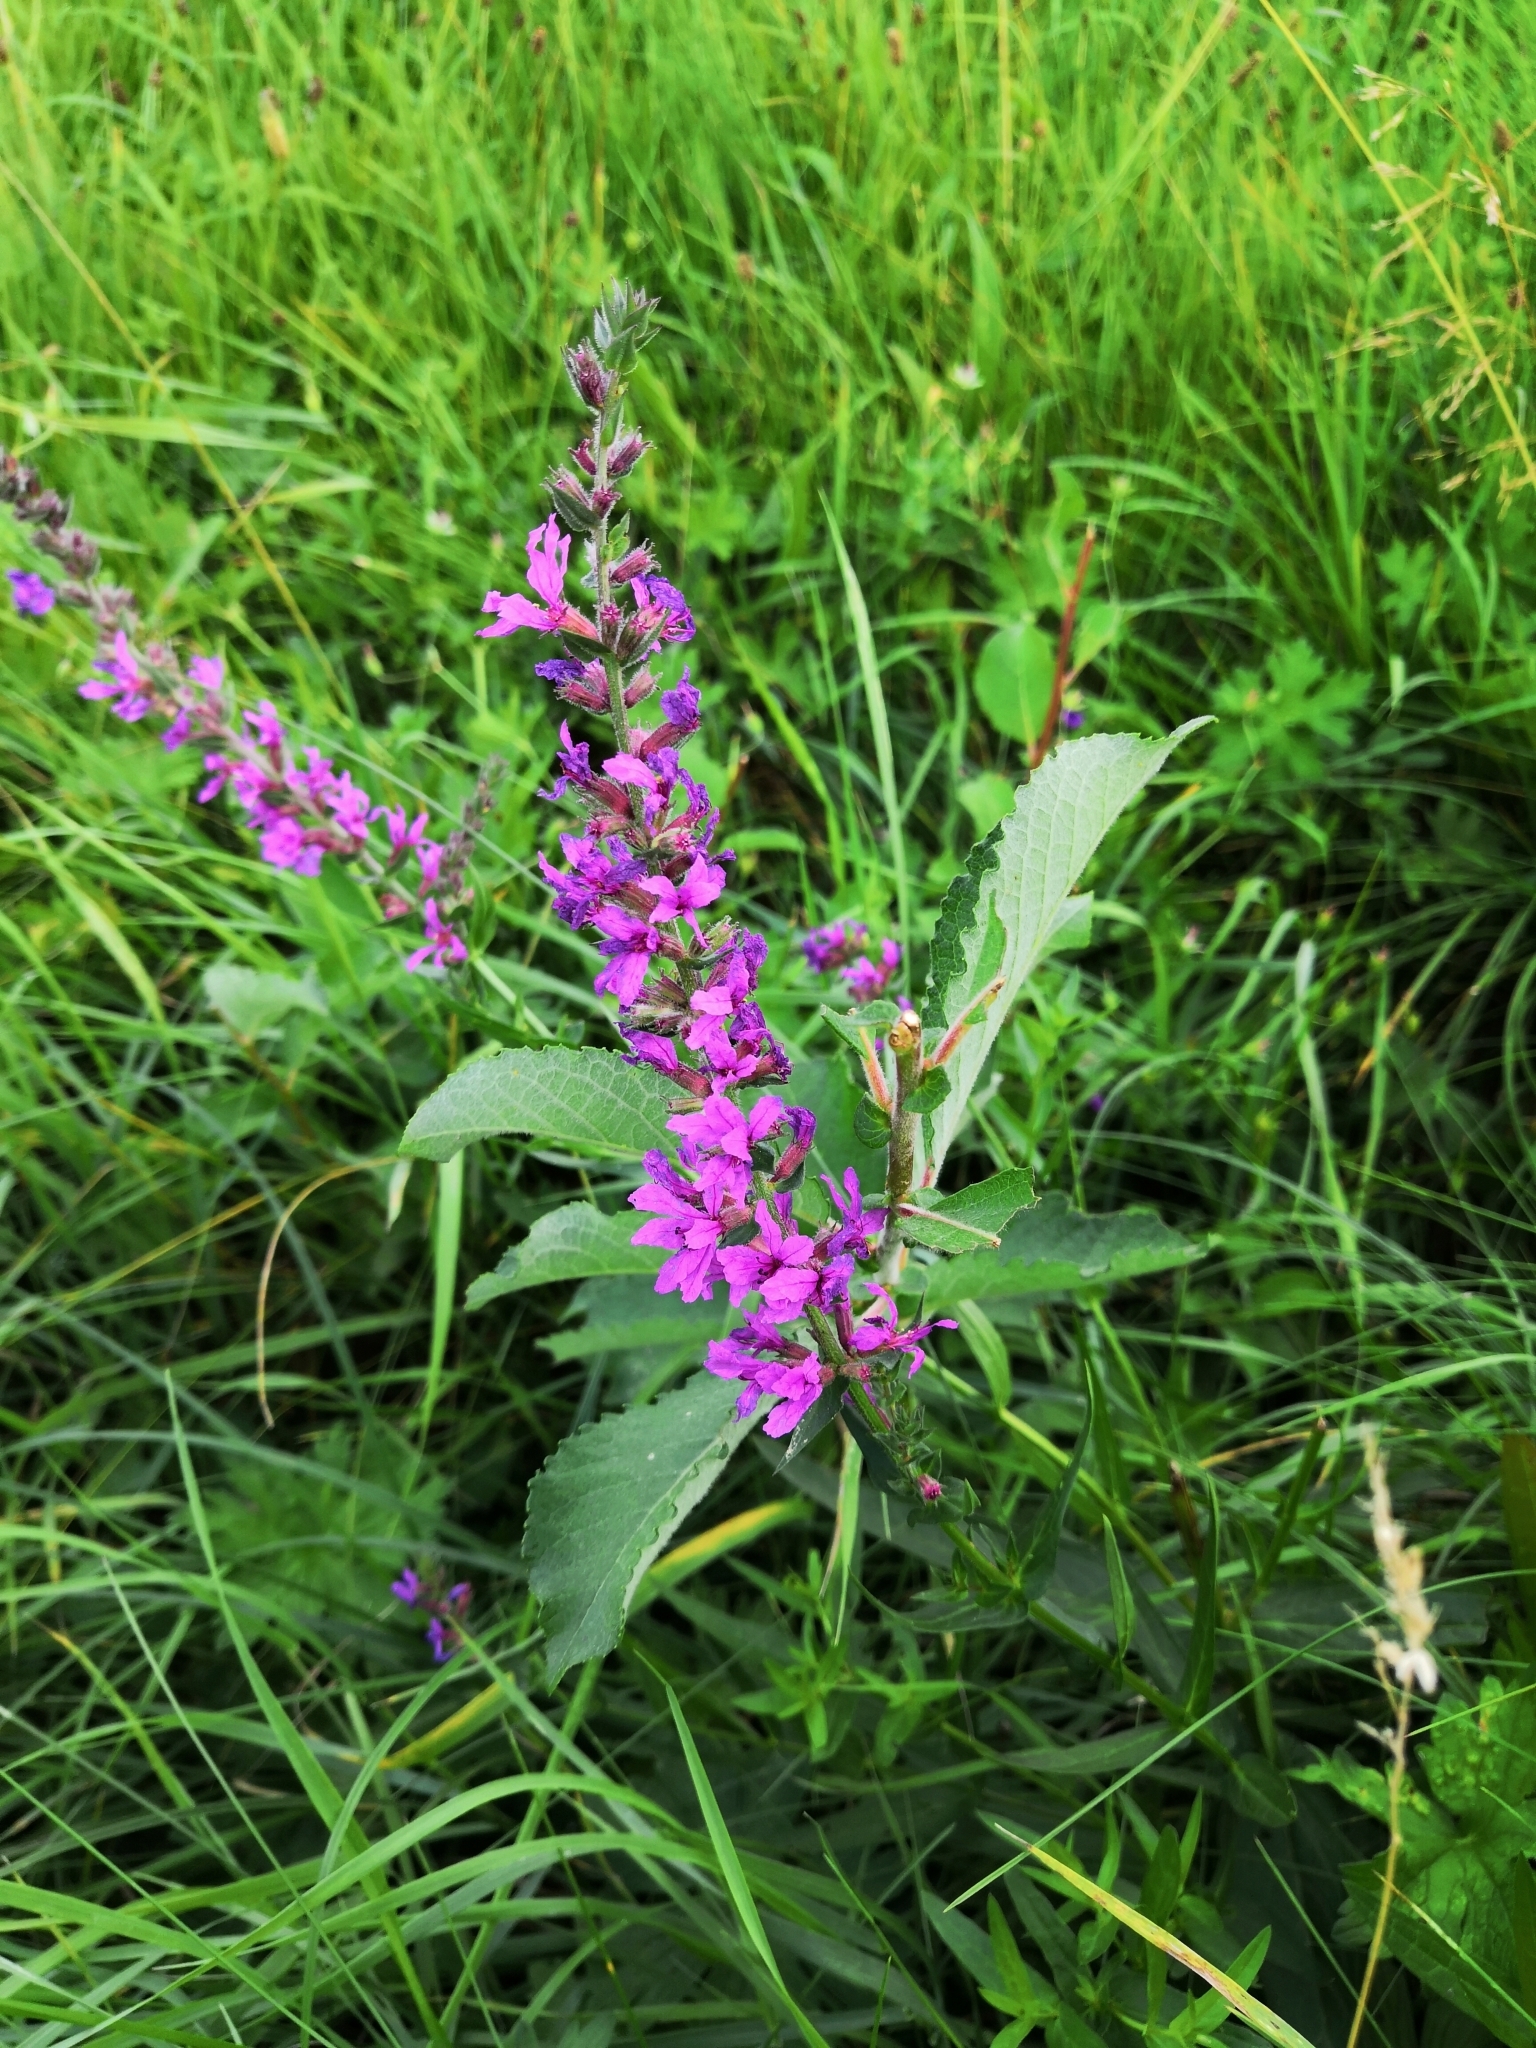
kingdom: Plantae
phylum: Tracheophyta
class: Magnoliopsida
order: Myrtales
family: Lythraceae
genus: Lythrum
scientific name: Lythrum salicaria
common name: Purple loosestrife
